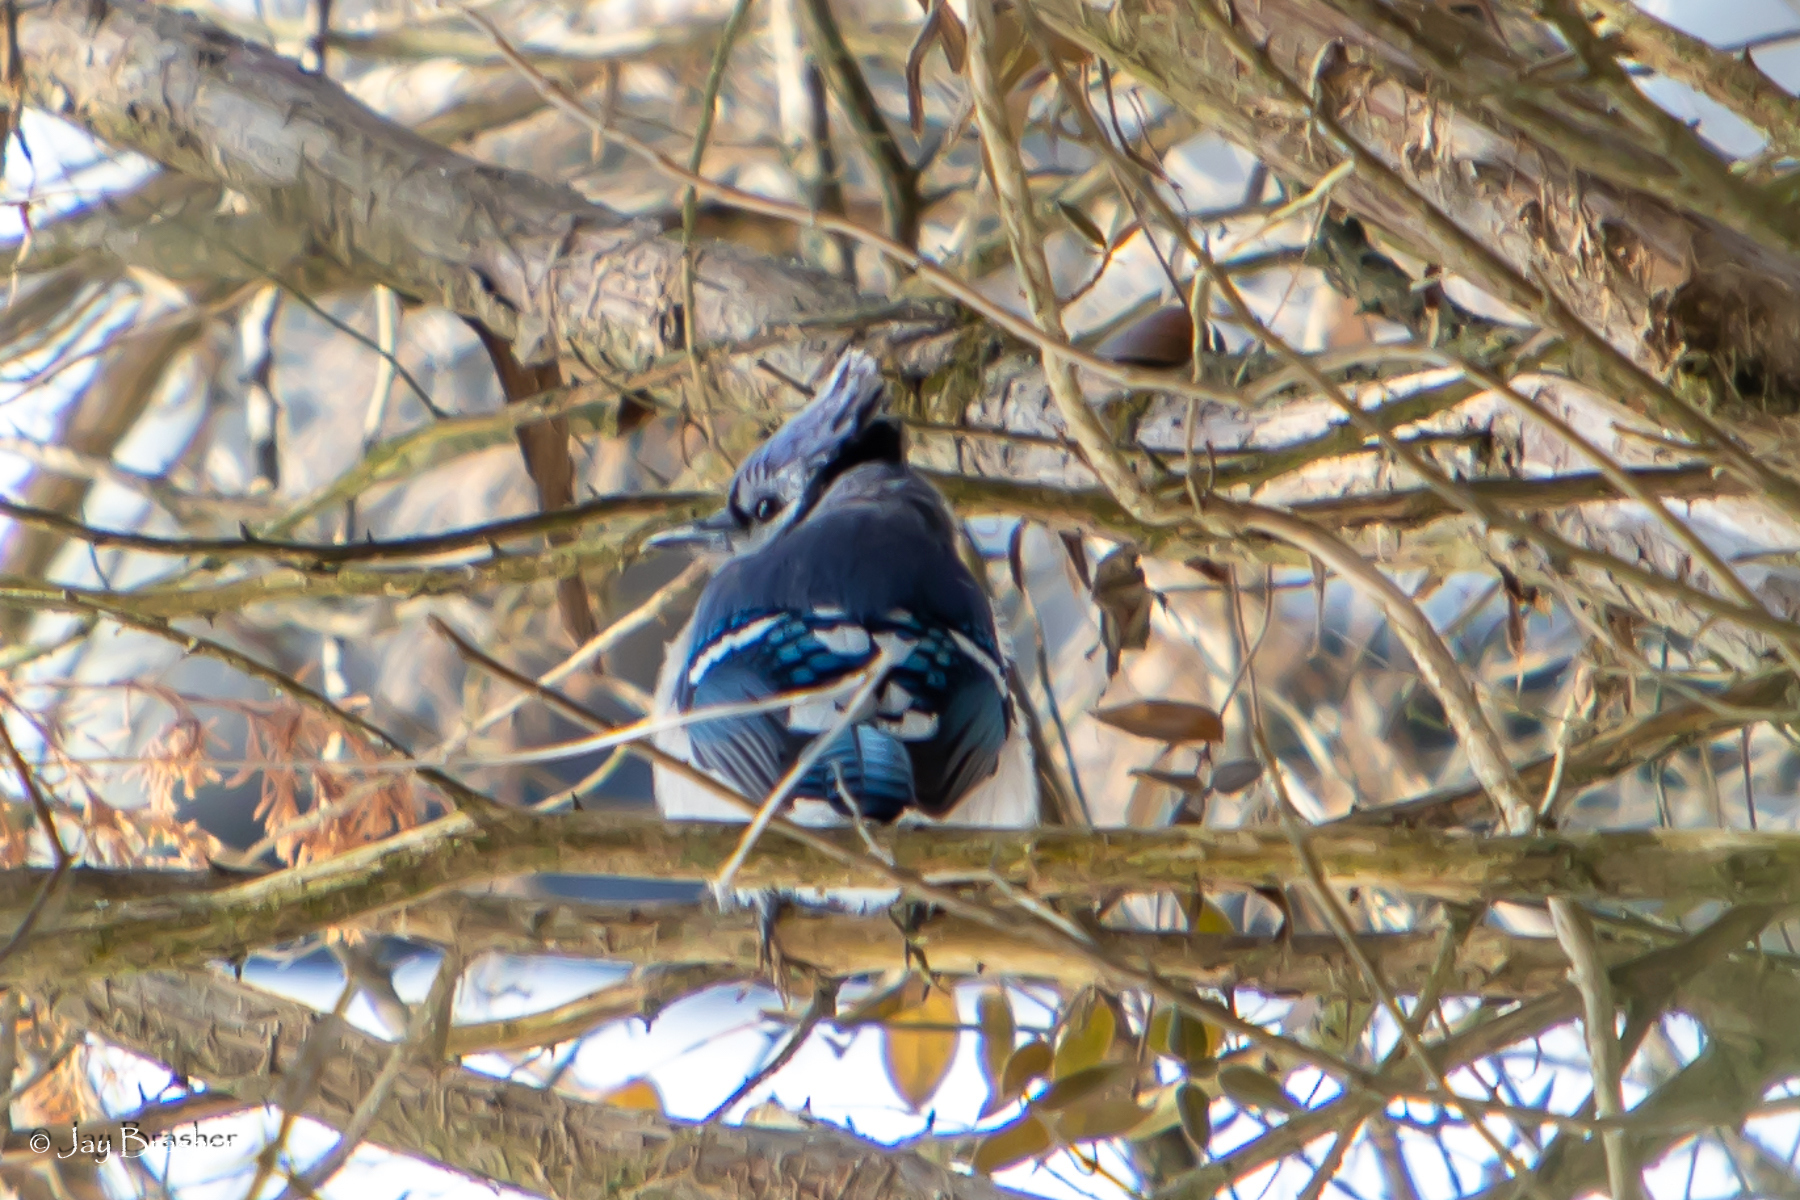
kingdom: Animalia
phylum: Chordata
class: Aves
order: Passeriformes
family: Corvidae
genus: Cyanocitta
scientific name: Cyanocitta cristata
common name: Blue jay
